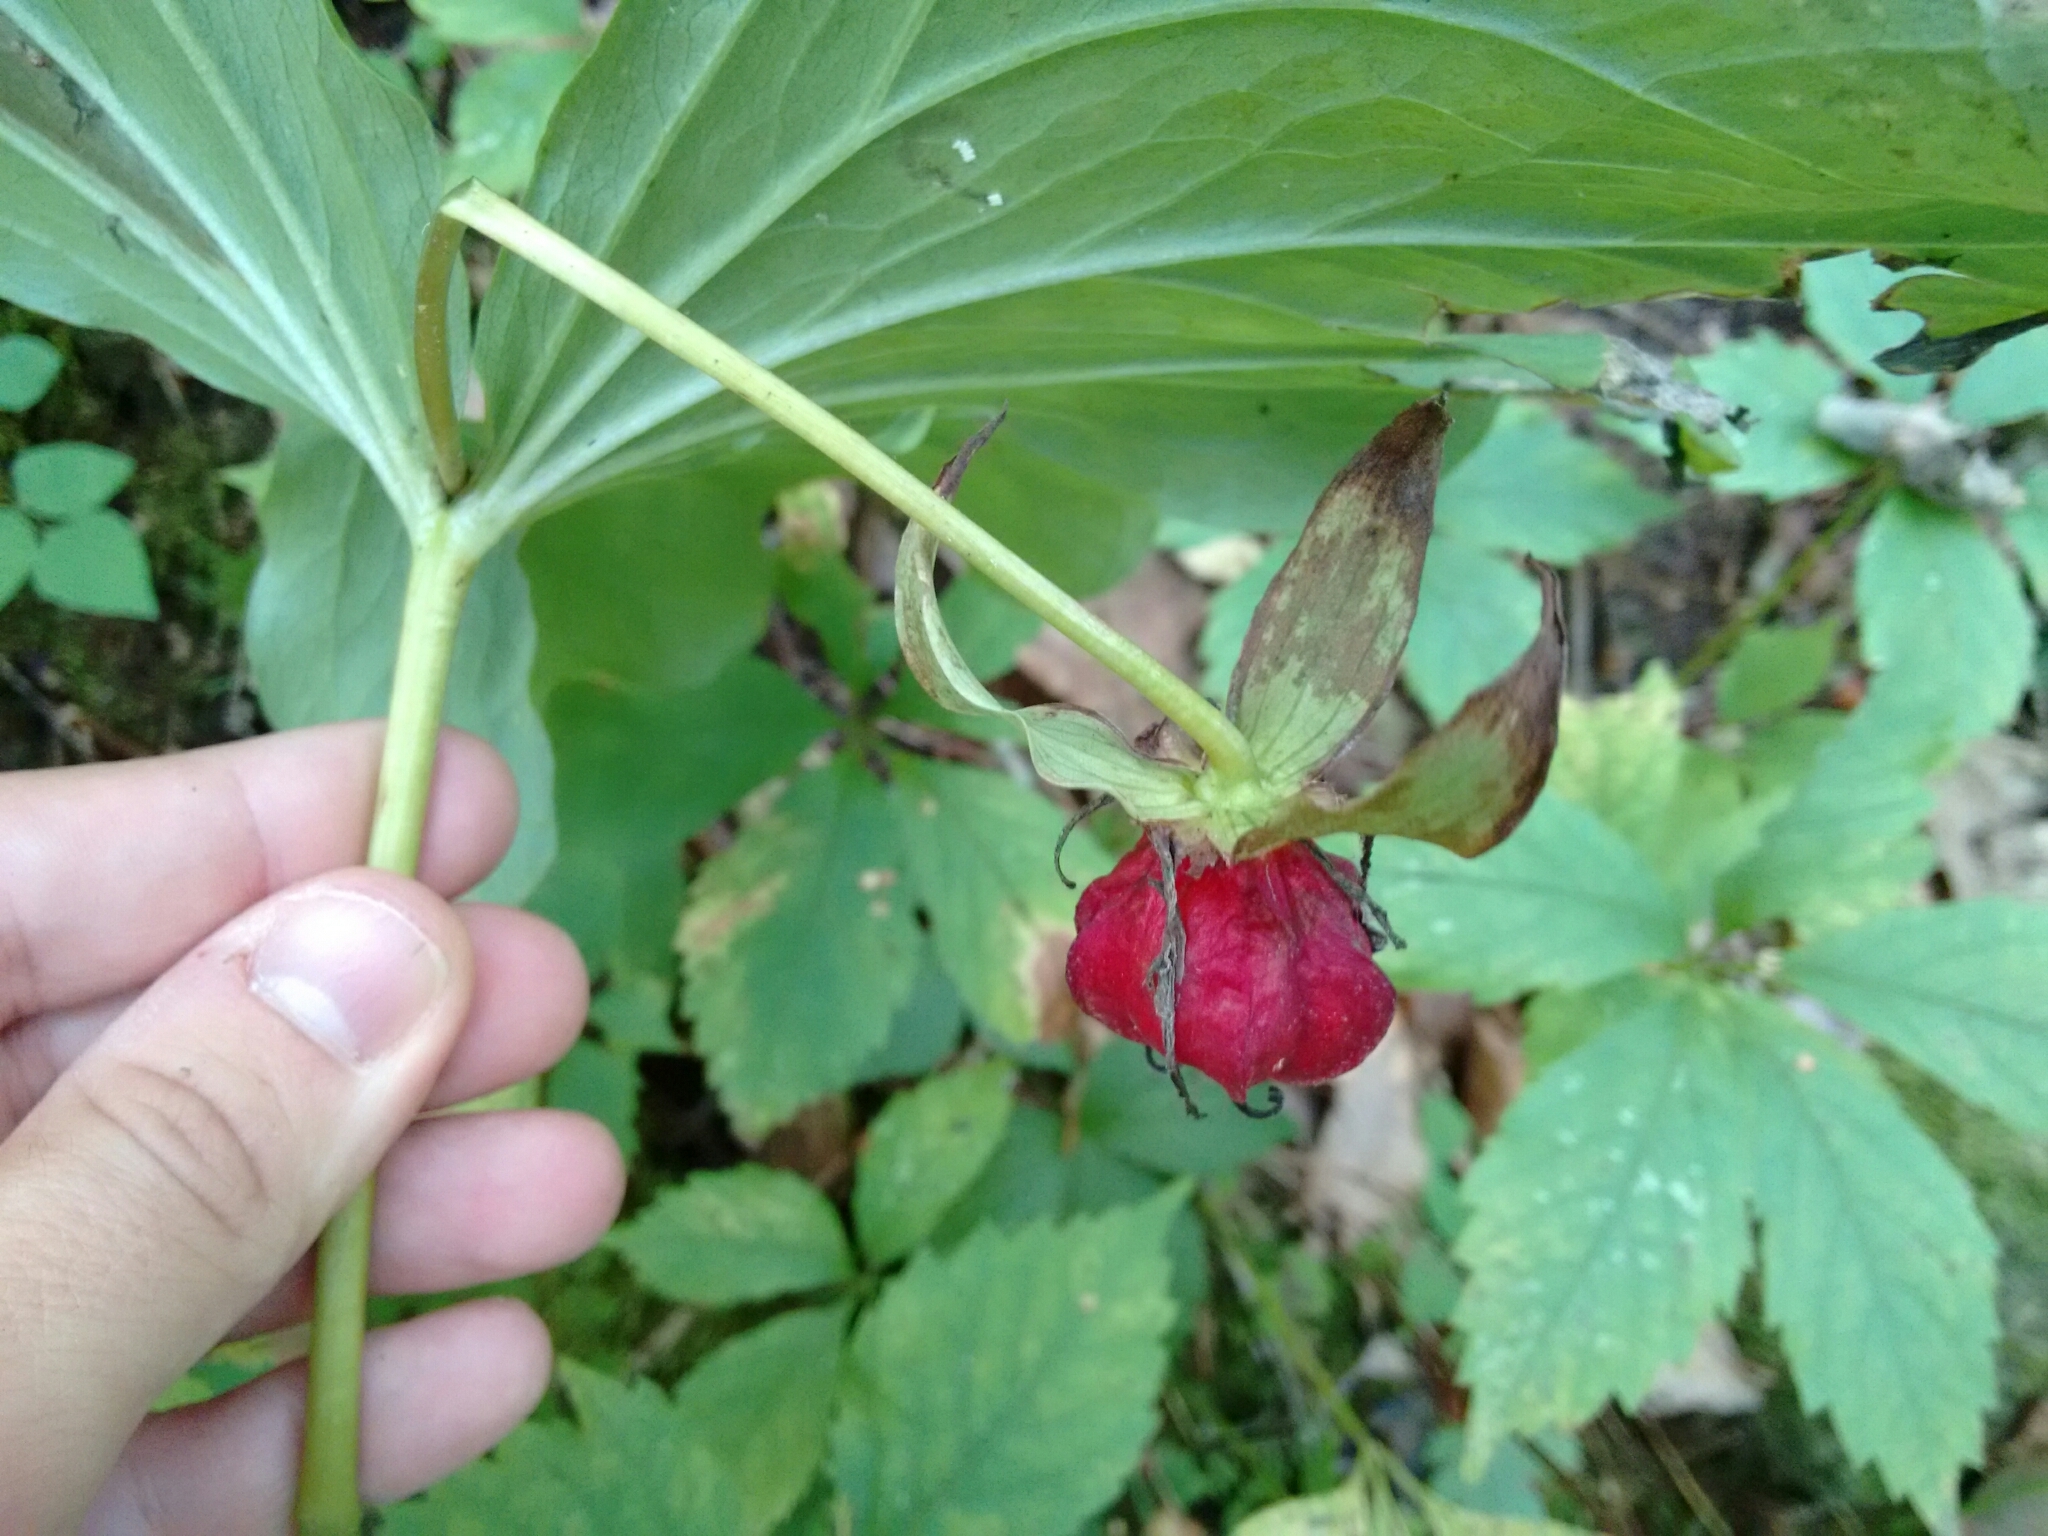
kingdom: Plantae
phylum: Tracheophyta
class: Liliopsida
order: Liliales
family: Melanthiaceae
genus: Trillium
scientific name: Trillium flexipes
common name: Drooping trillium
